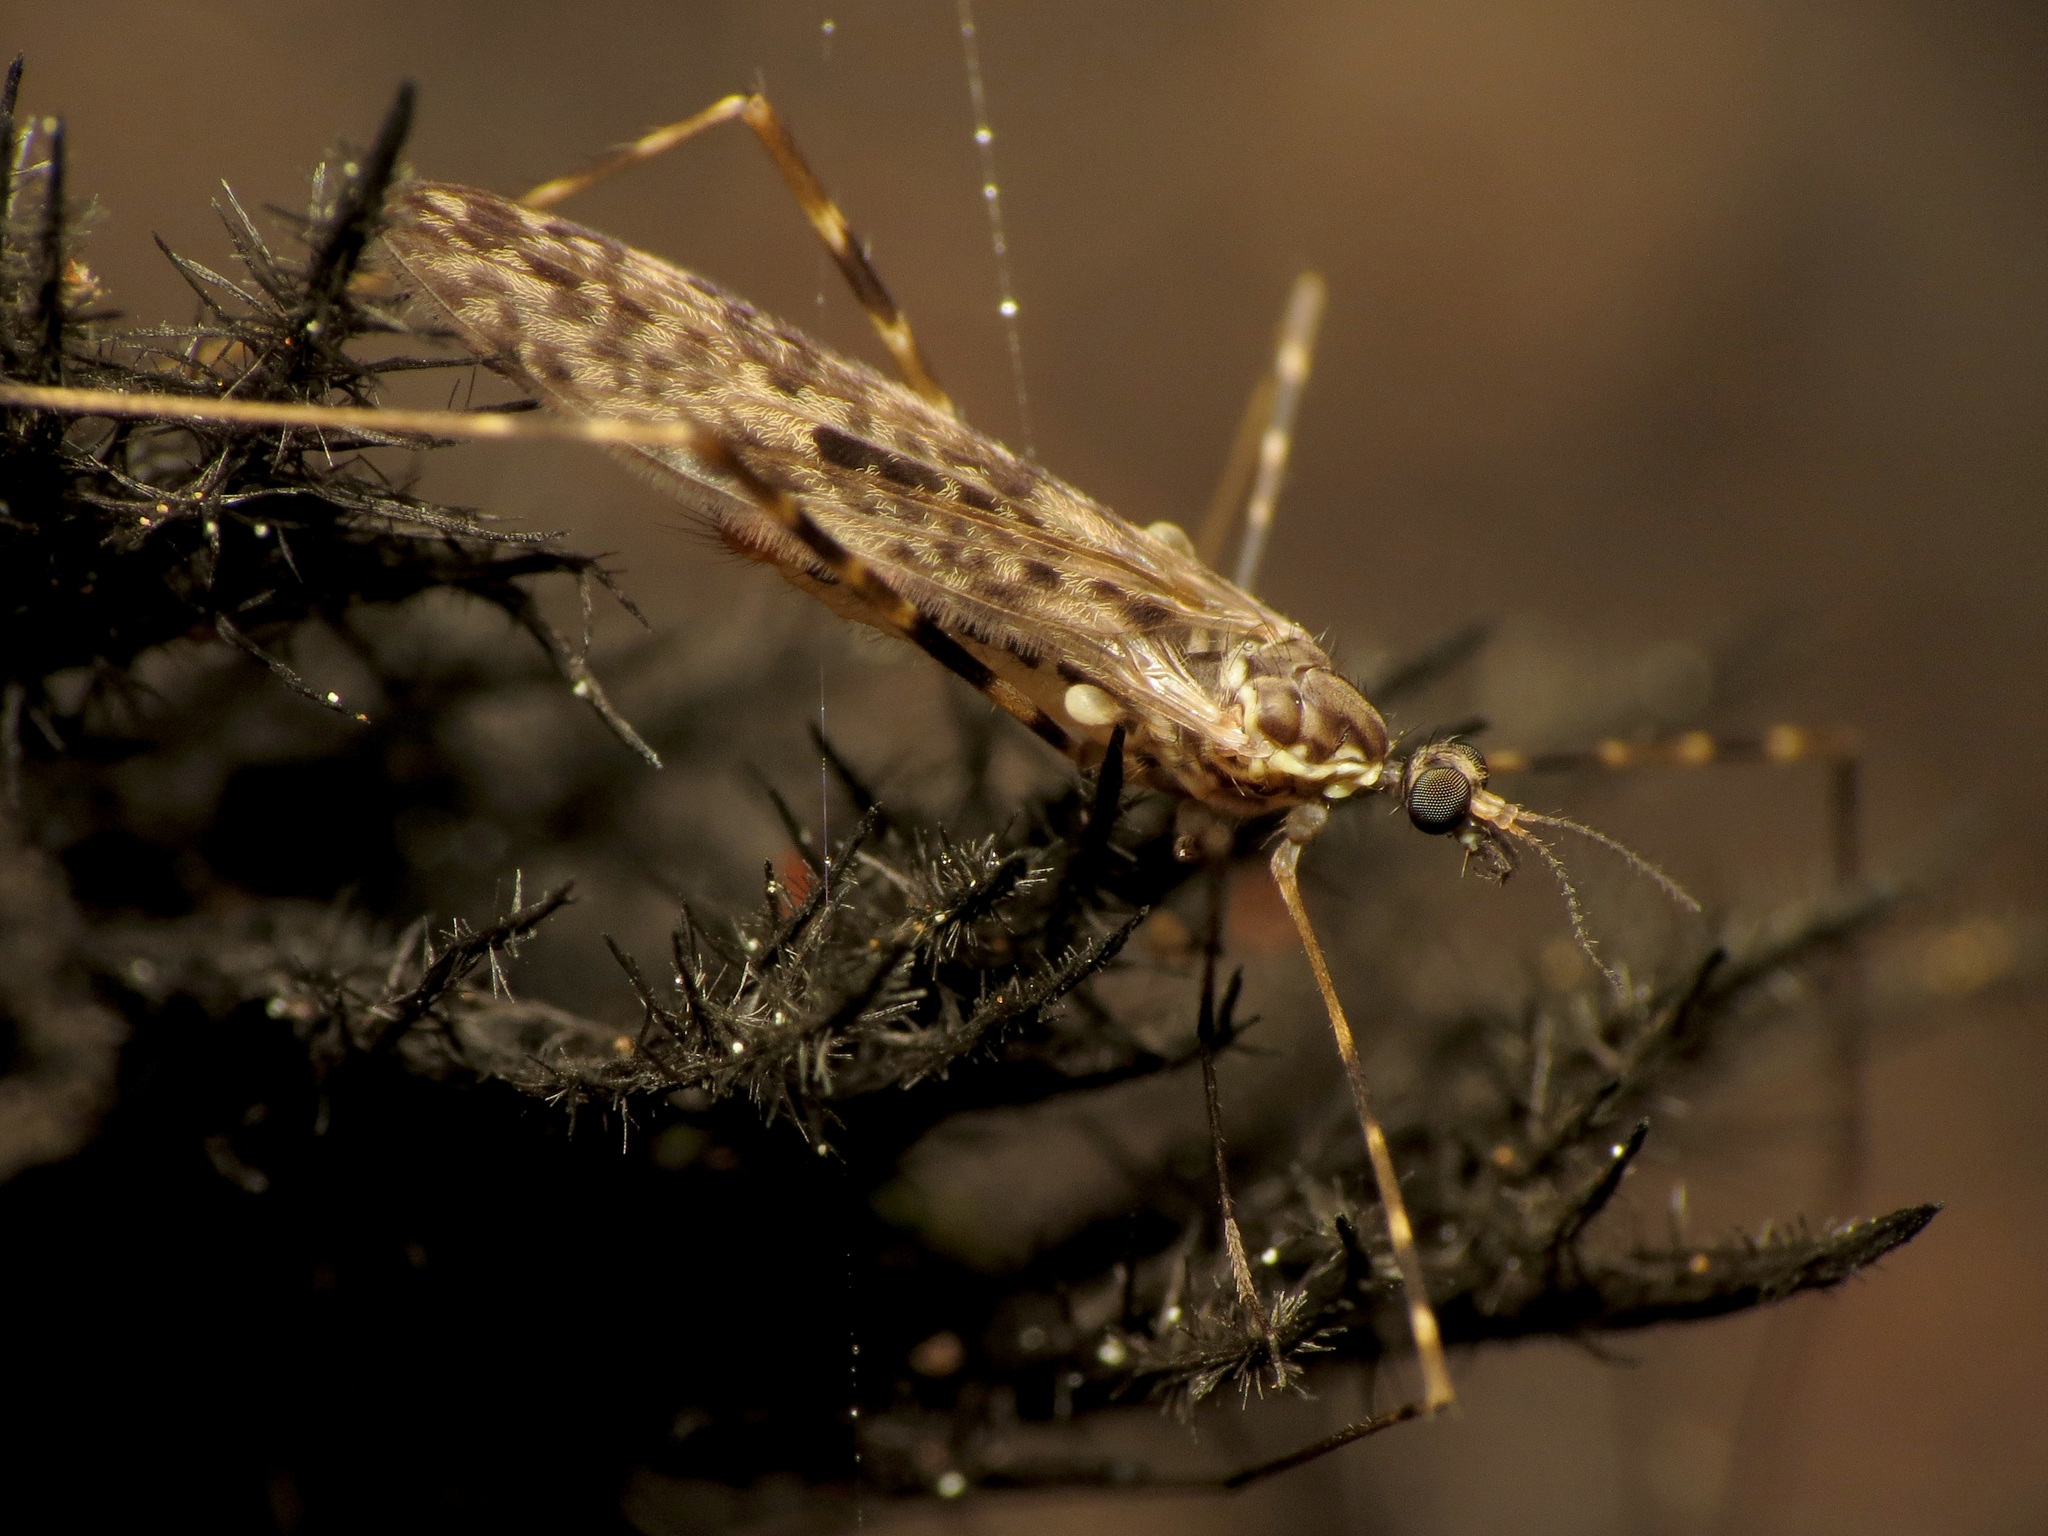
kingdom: Animalia
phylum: Arthropoda
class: Insecta
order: Diptera
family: Limoniidae
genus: Amphineurus
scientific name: Amphineurus hudsoni
